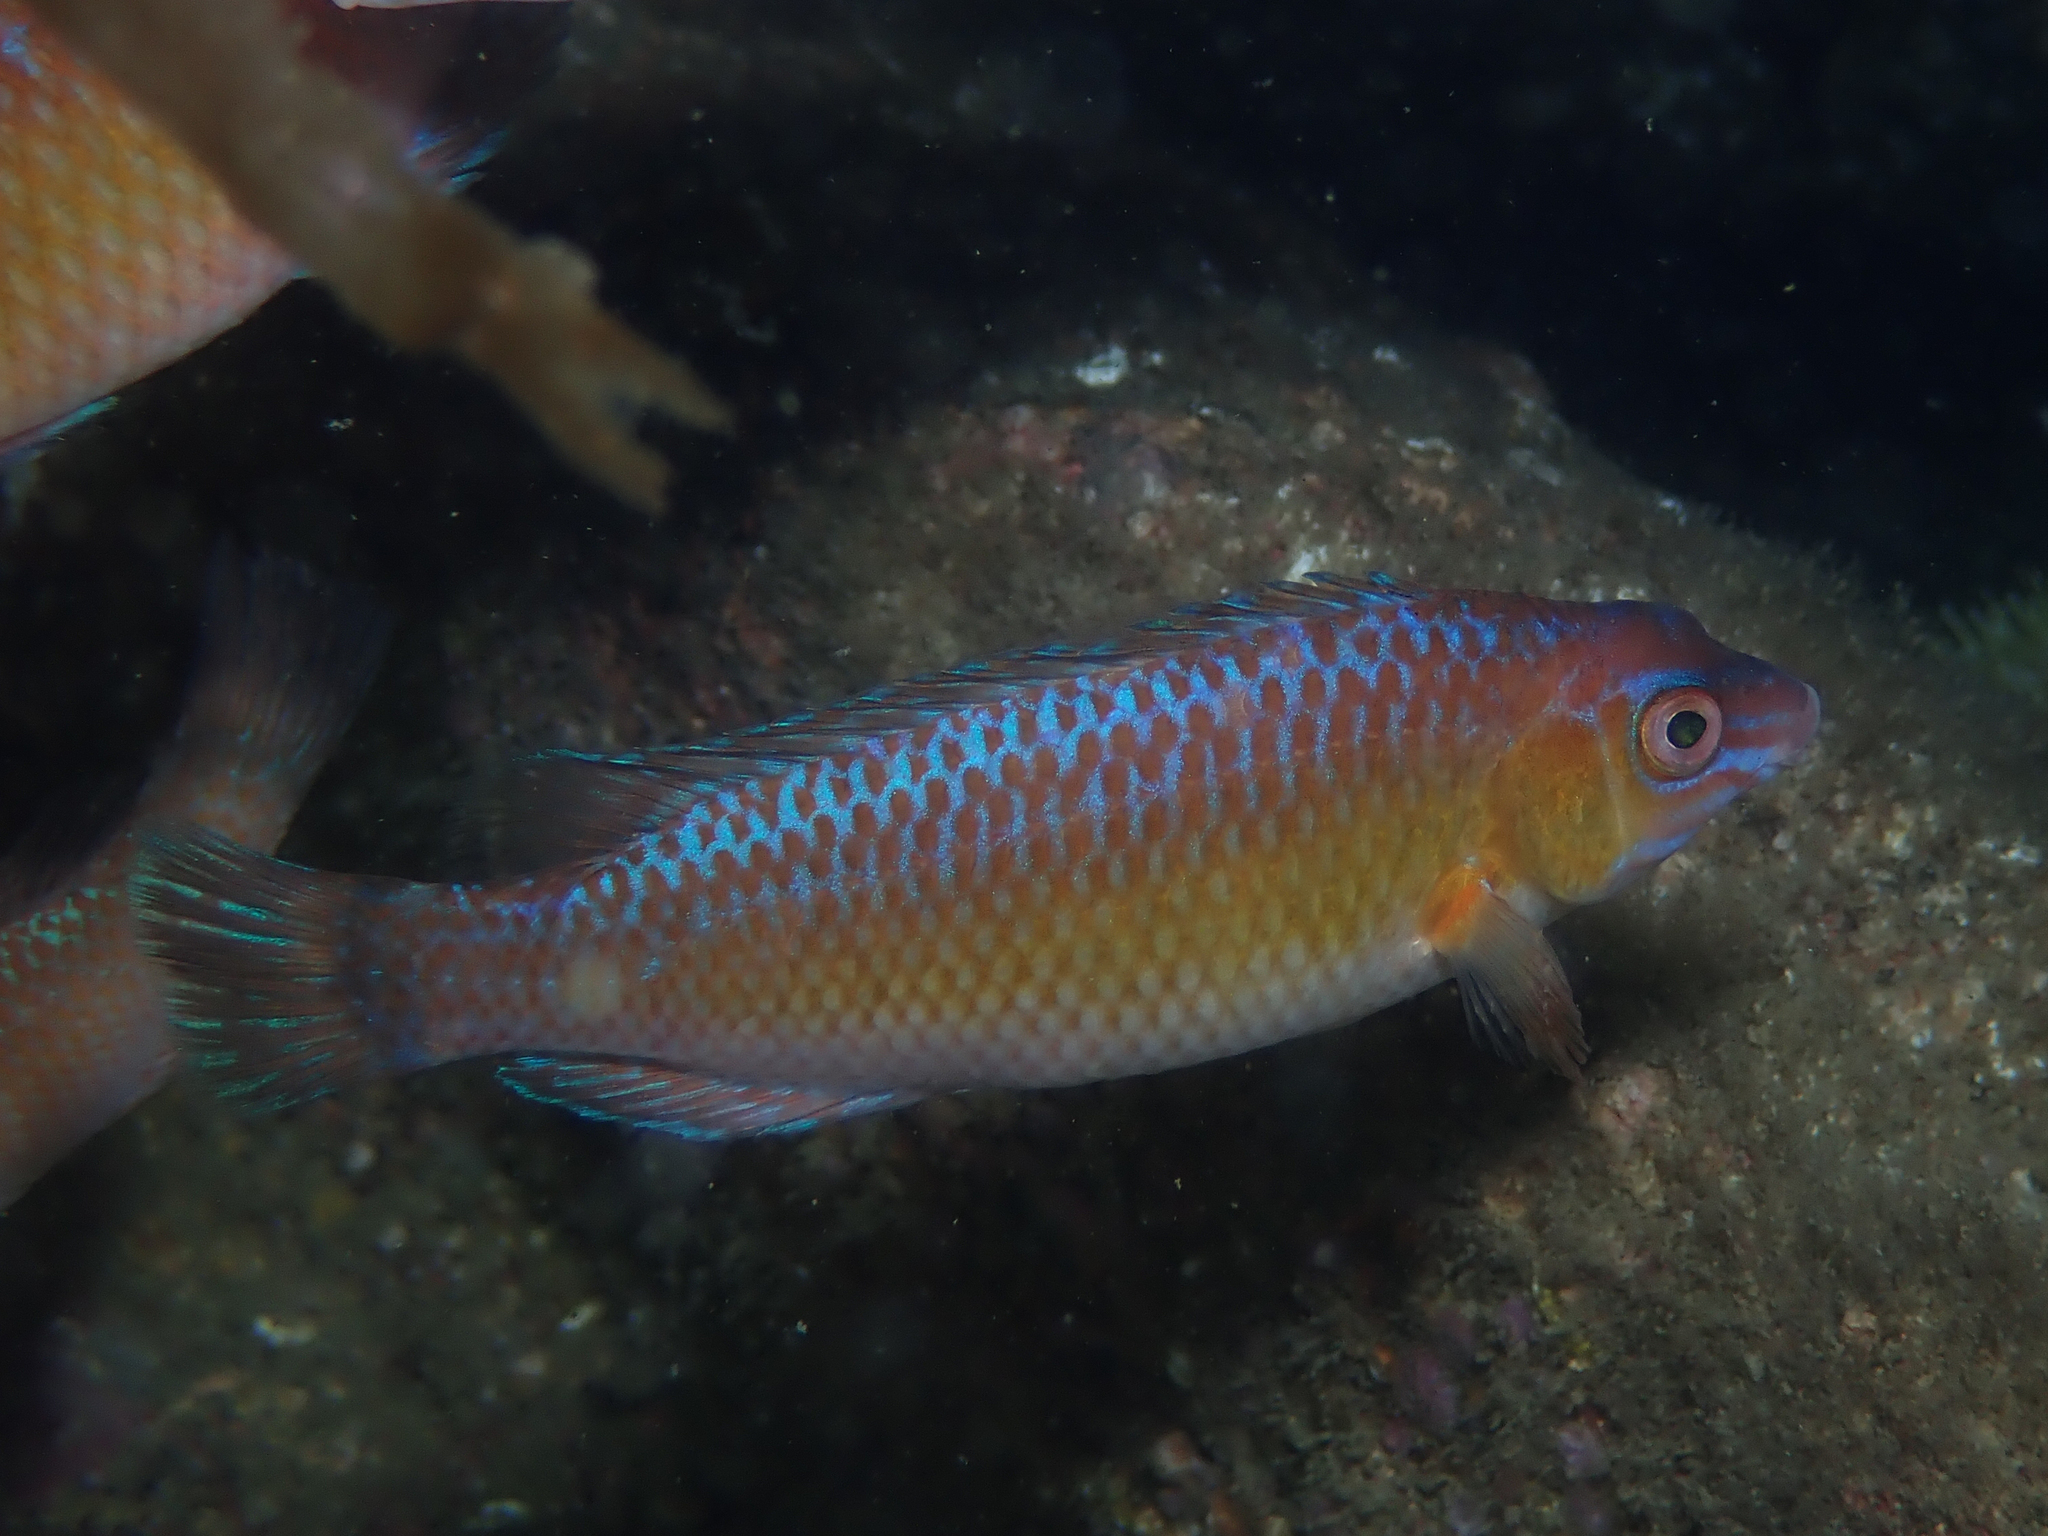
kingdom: Animalia
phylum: Chordata
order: Perciformes
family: Labridae
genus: Centrolabrus
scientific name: Centrolabrus exoletus
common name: Rock cook
